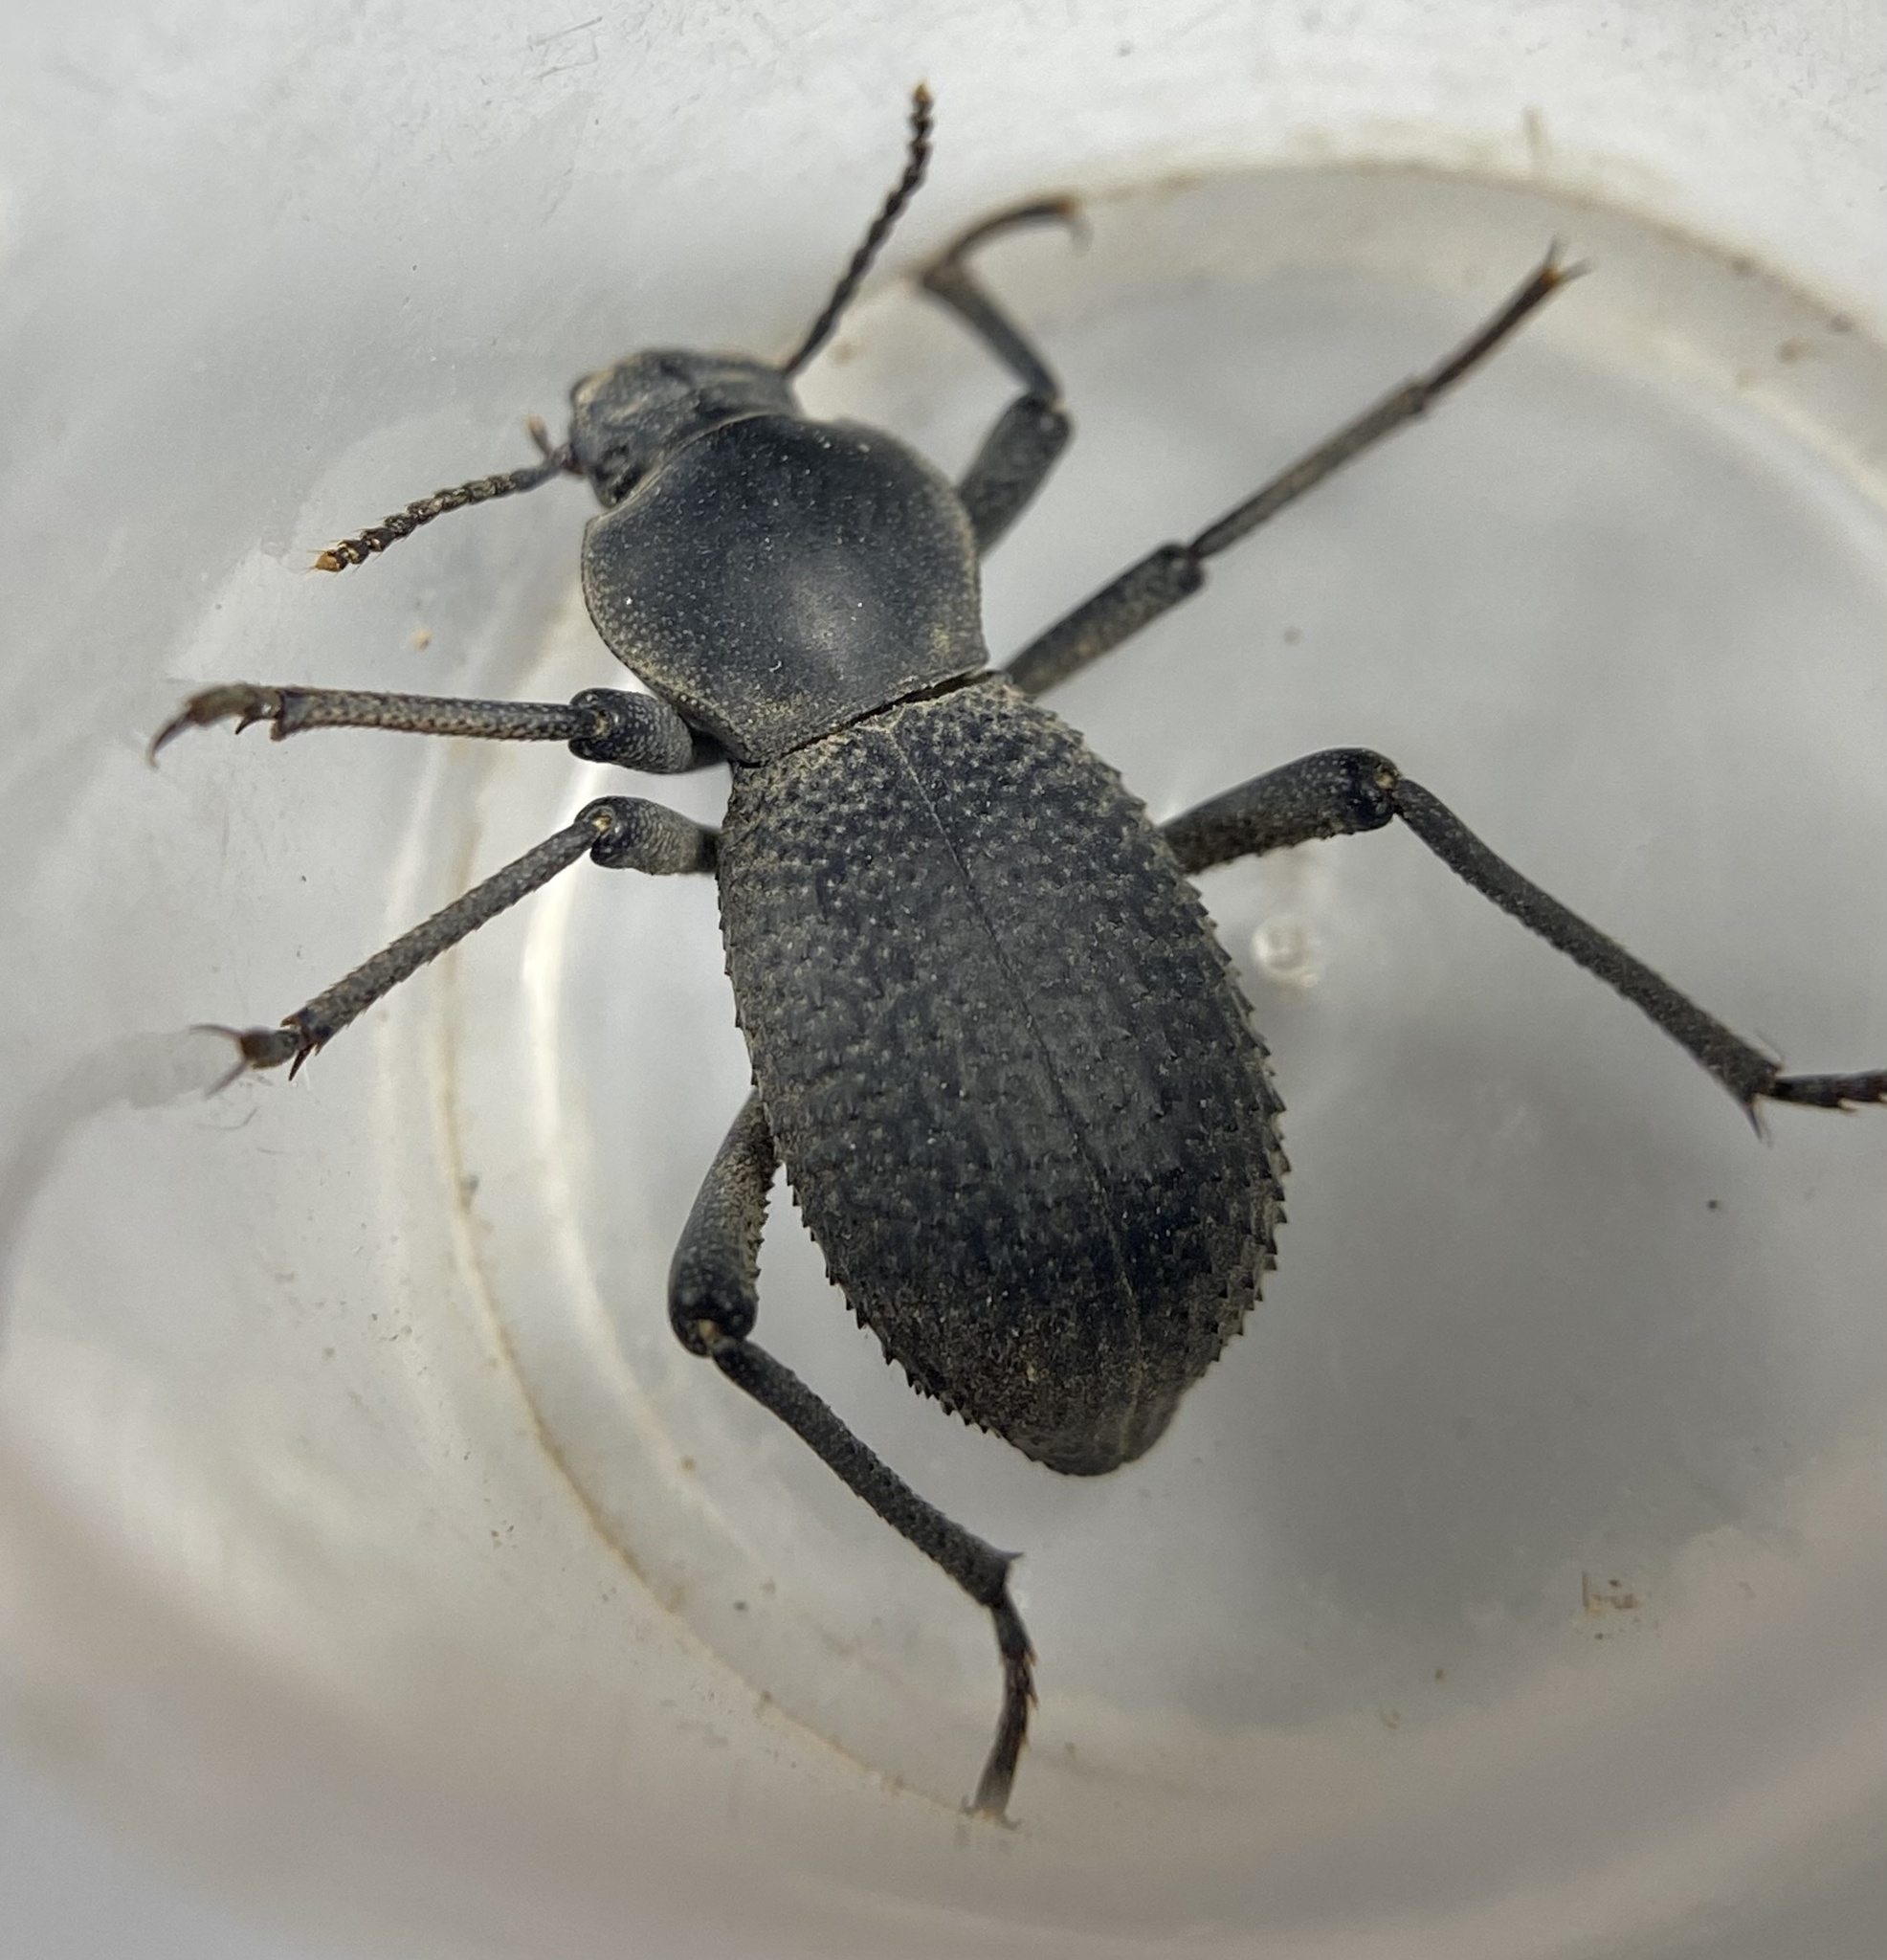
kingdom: Animalia
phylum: Arthropoda
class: Insecta
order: Coleoptera
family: Tenebrionidae
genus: Cryptoglossa
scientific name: Cryptoglossa muricata
